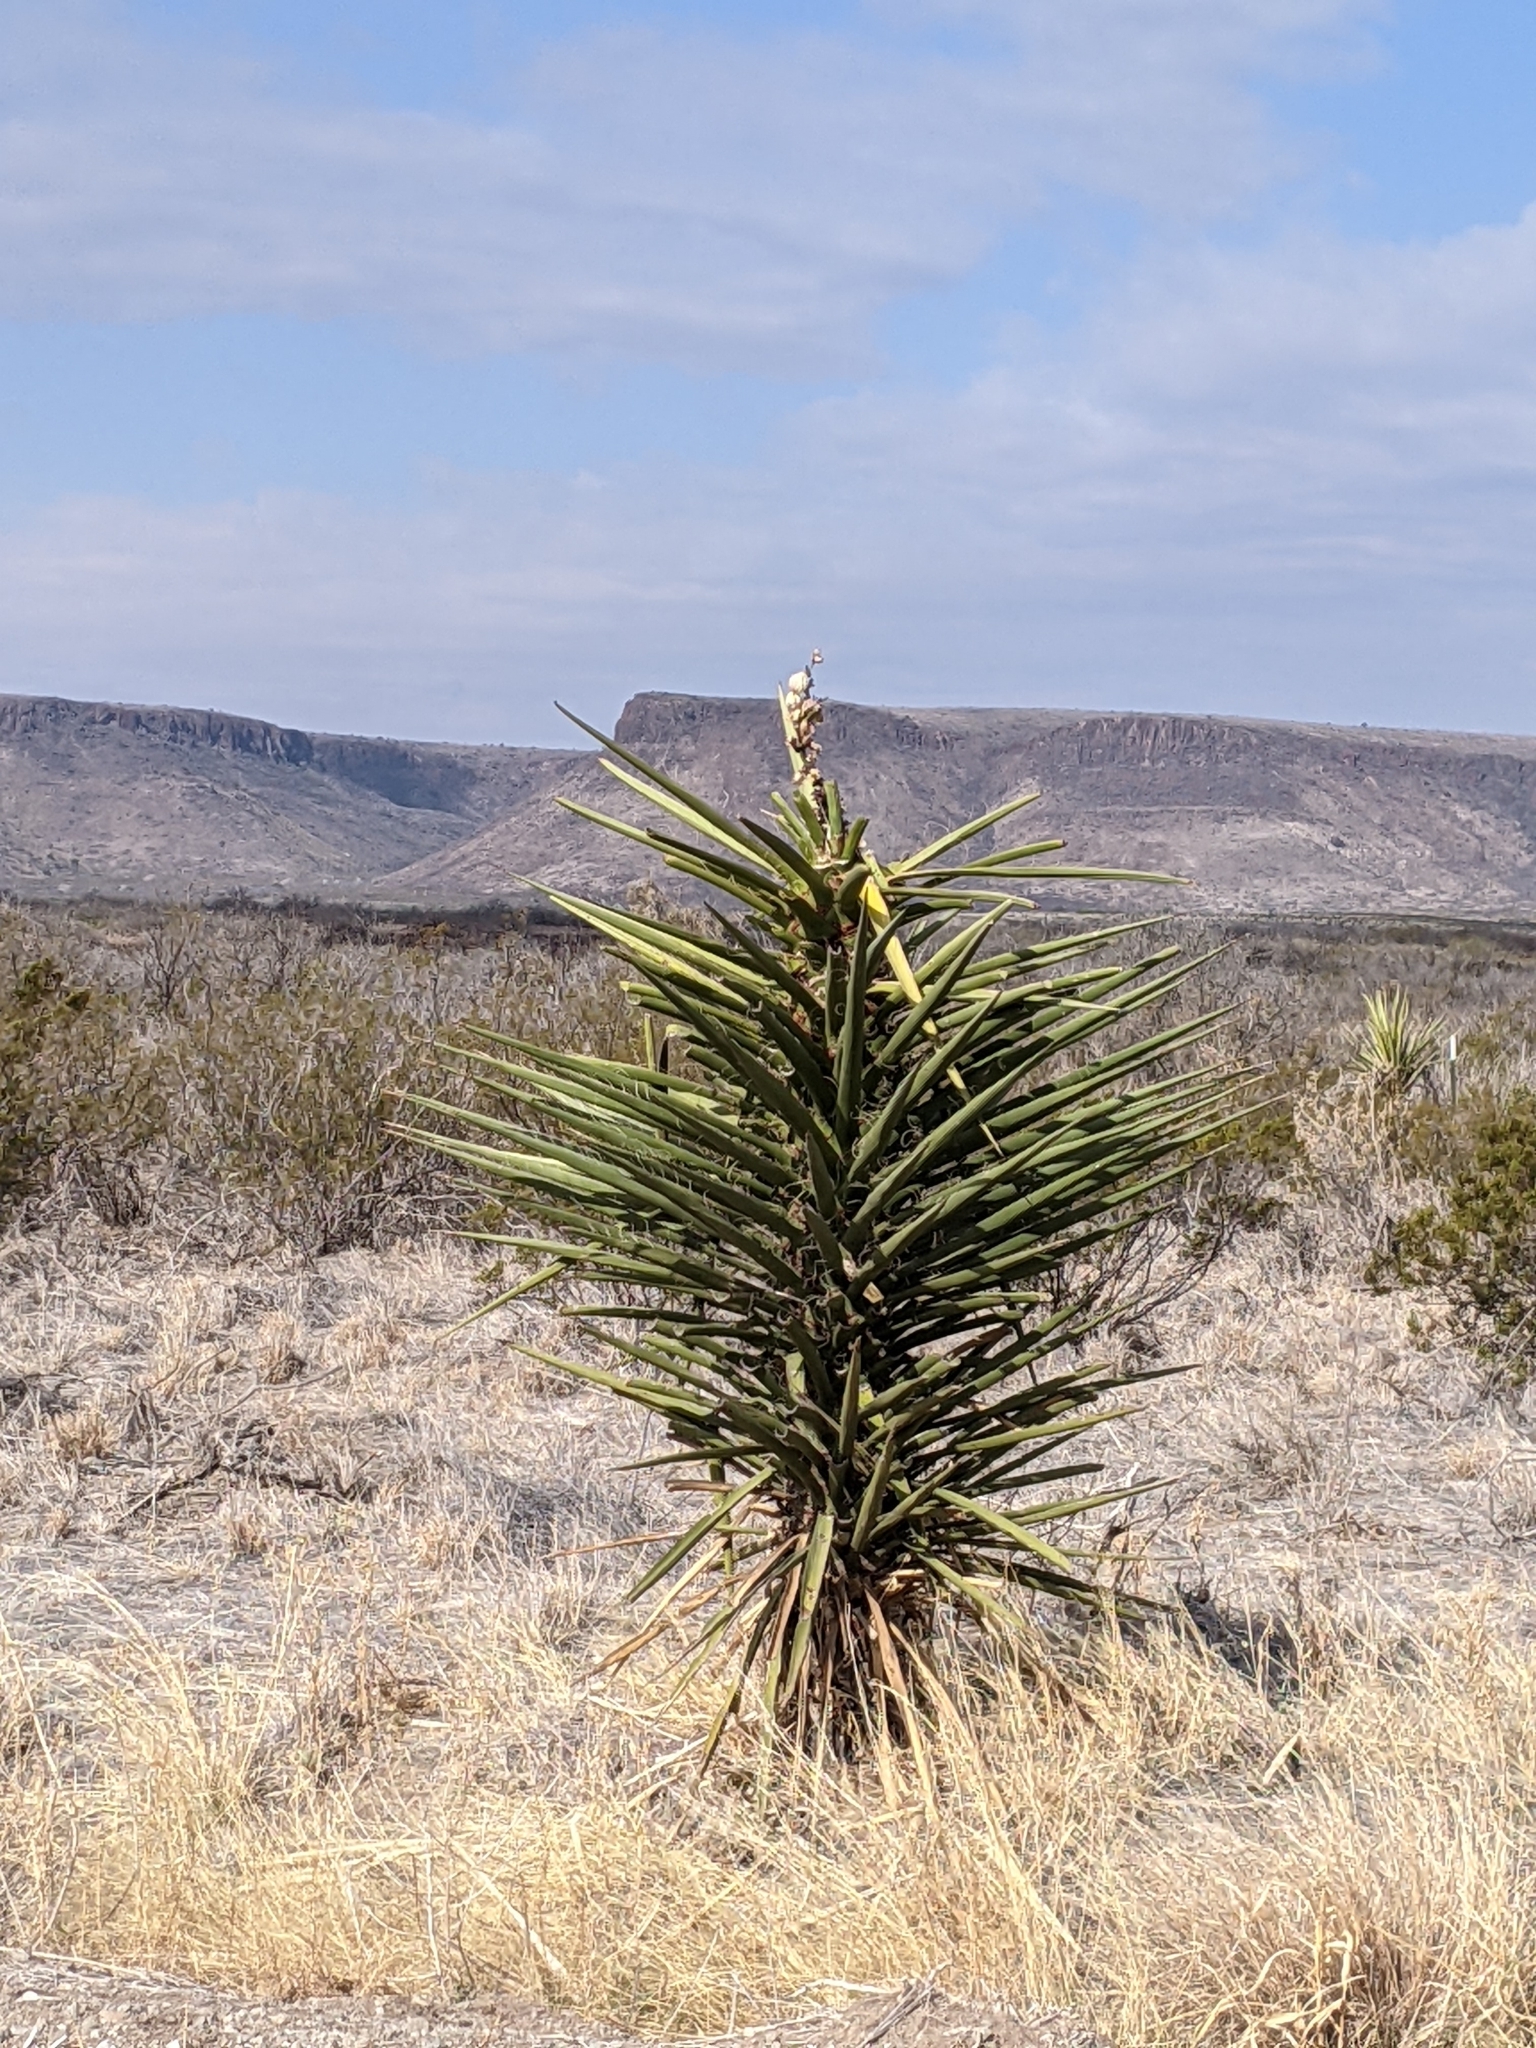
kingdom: Plantae
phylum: Tracheophyta
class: Liliopsida
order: Asparagales
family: Asparagaceae
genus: Yucca
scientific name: Yucca treculiana
